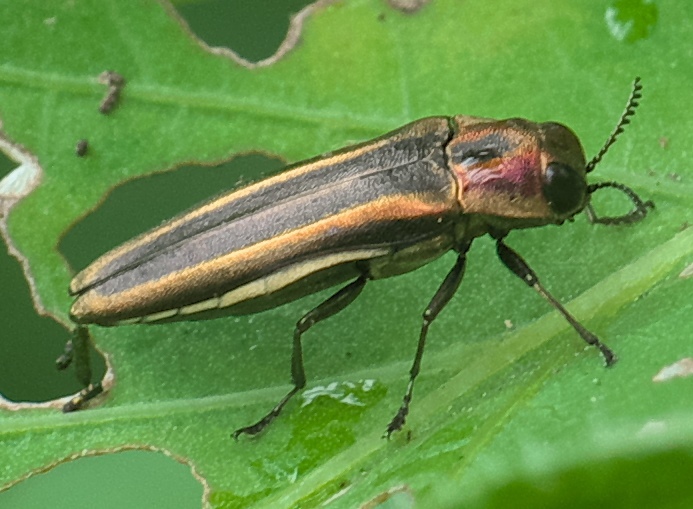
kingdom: Animalia
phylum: Arthropoda
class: Insecta
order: Coleoptera
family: Buprestidae
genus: Agrilus
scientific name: Agrilus concinnus
